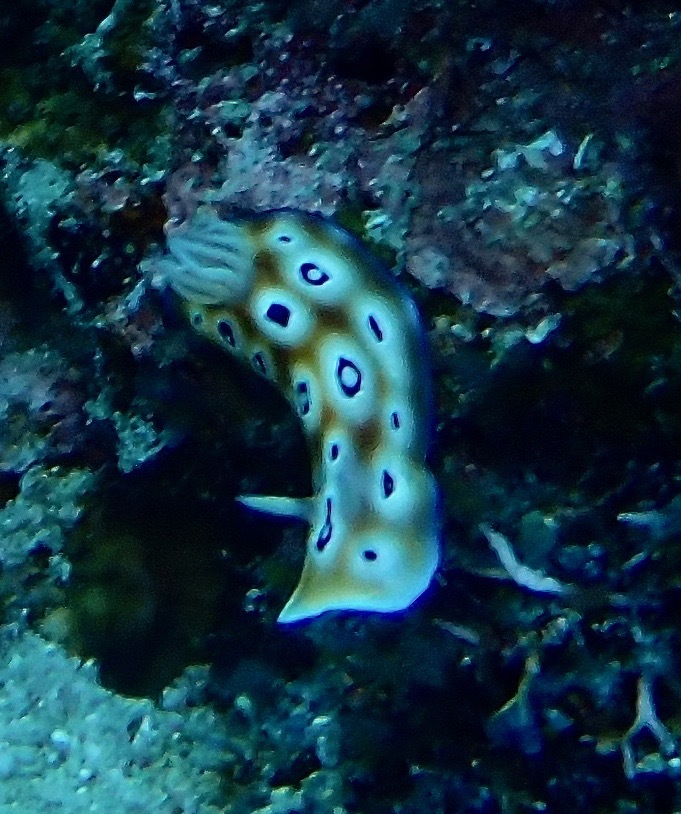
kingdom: Animalia
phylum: Mollusca
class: Gastropoda
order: Nudibranchia
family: Chromodorididae
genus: Goniobranchus
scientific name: Goniobranchus leopardus
